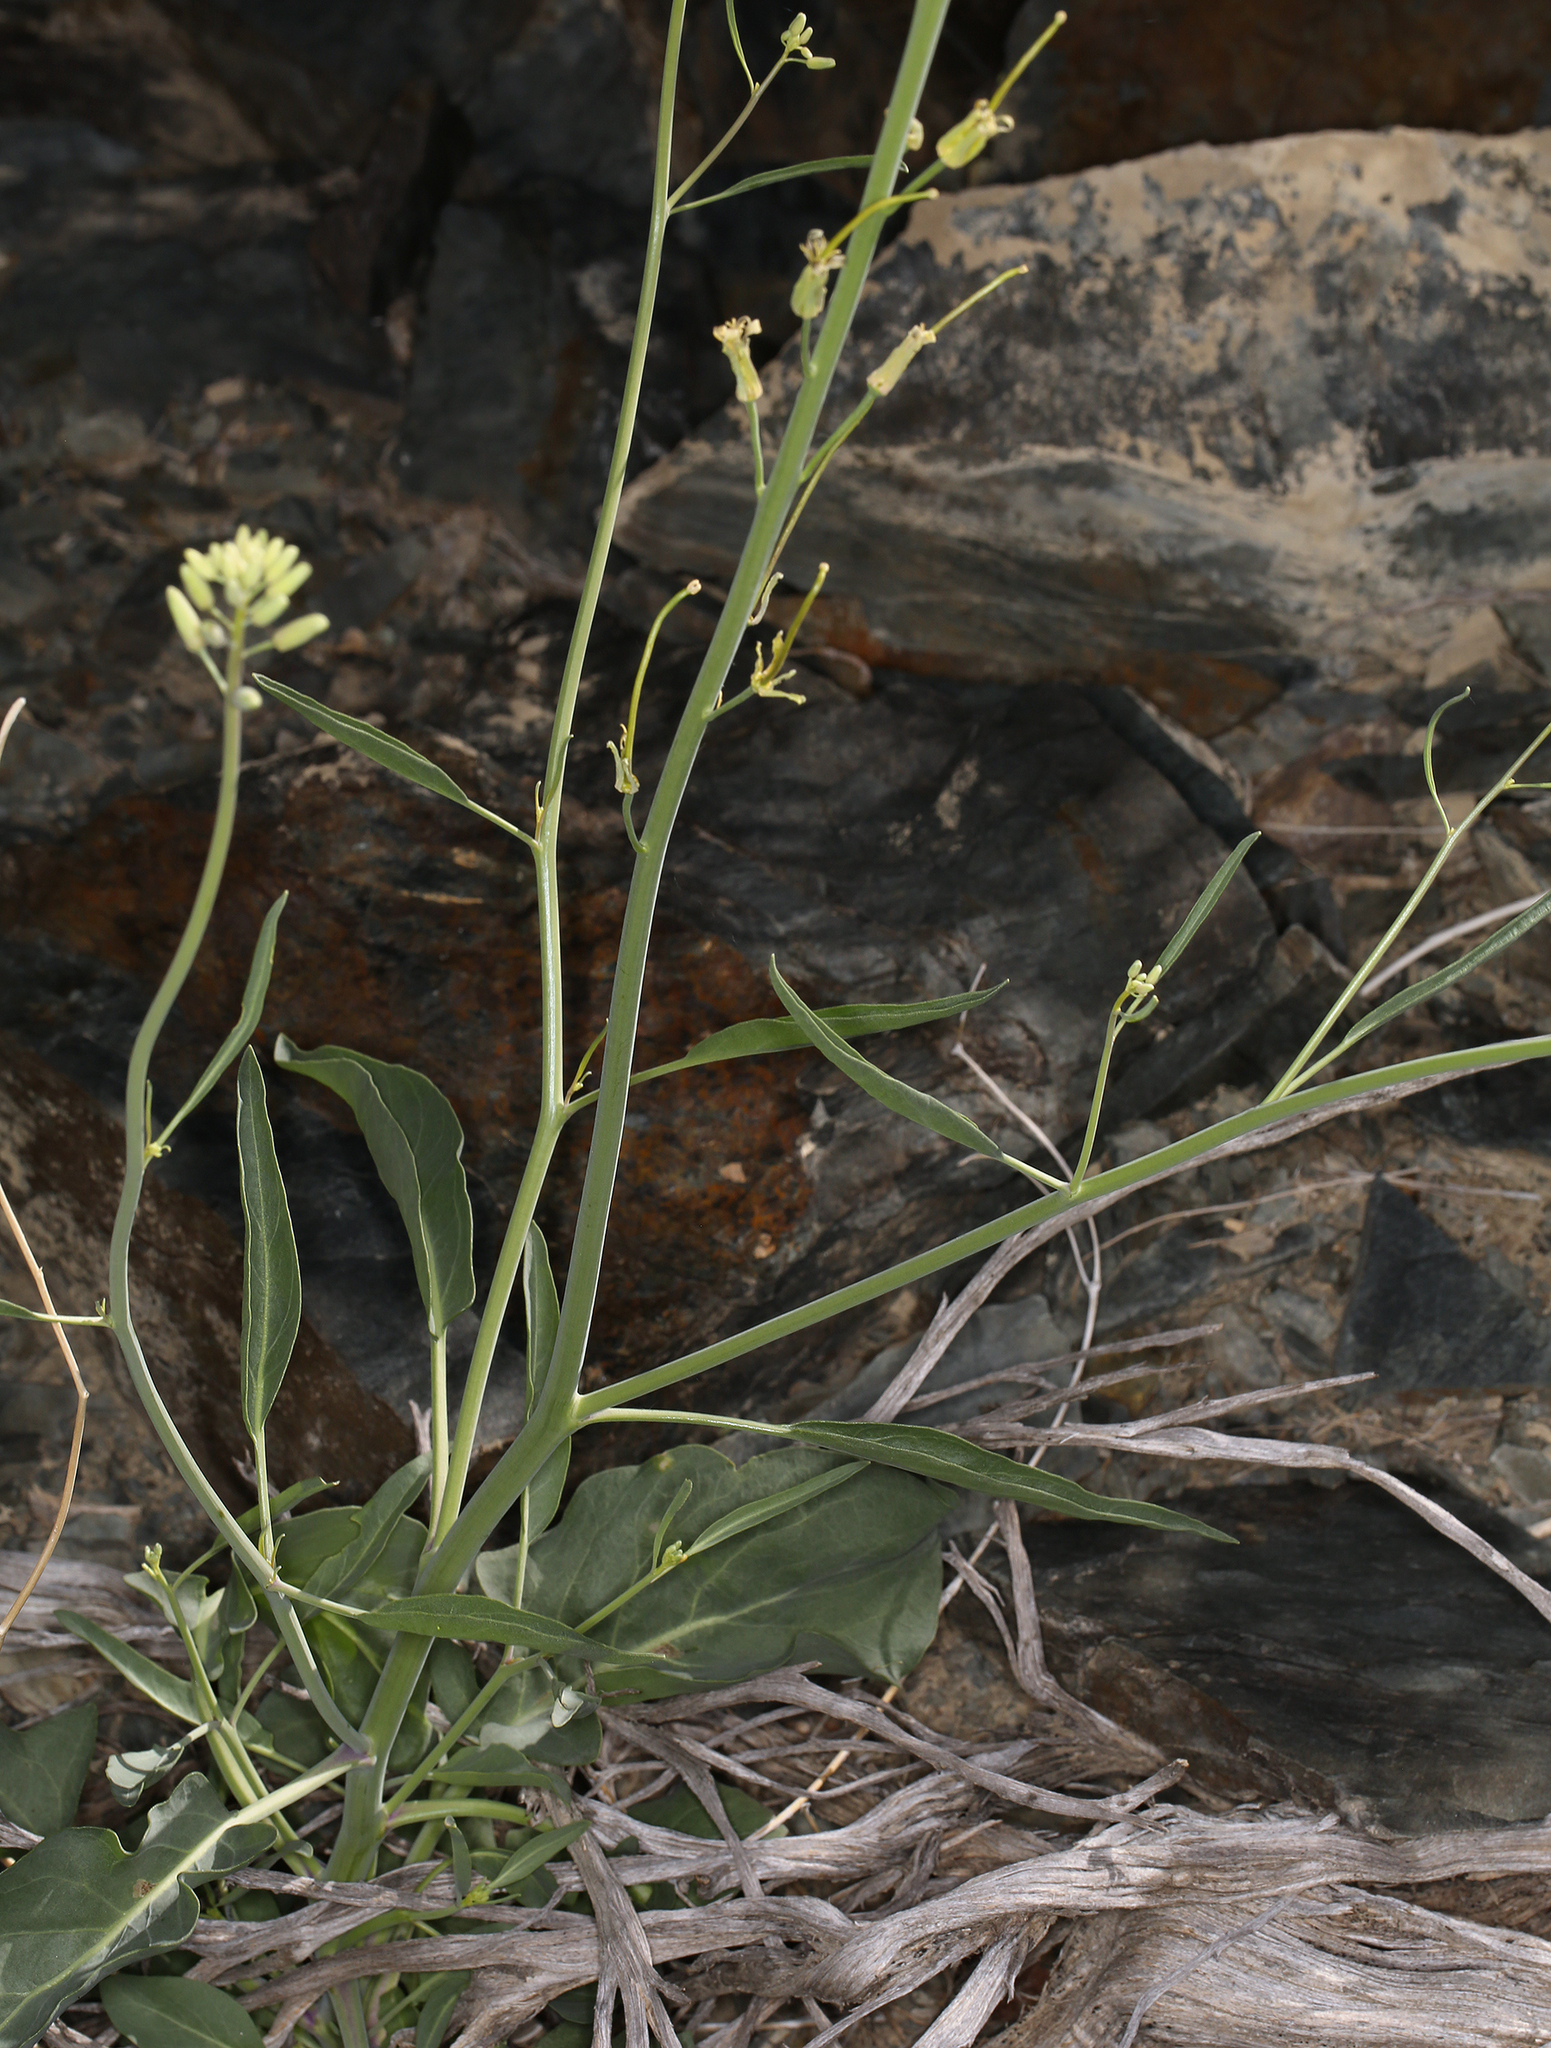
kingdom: Plantae
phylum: Tracheophyta
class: Magnoliopsida
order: Brassicales
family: Brassicaceae
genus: Streptanthus
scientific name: Streptanthus glaucus
